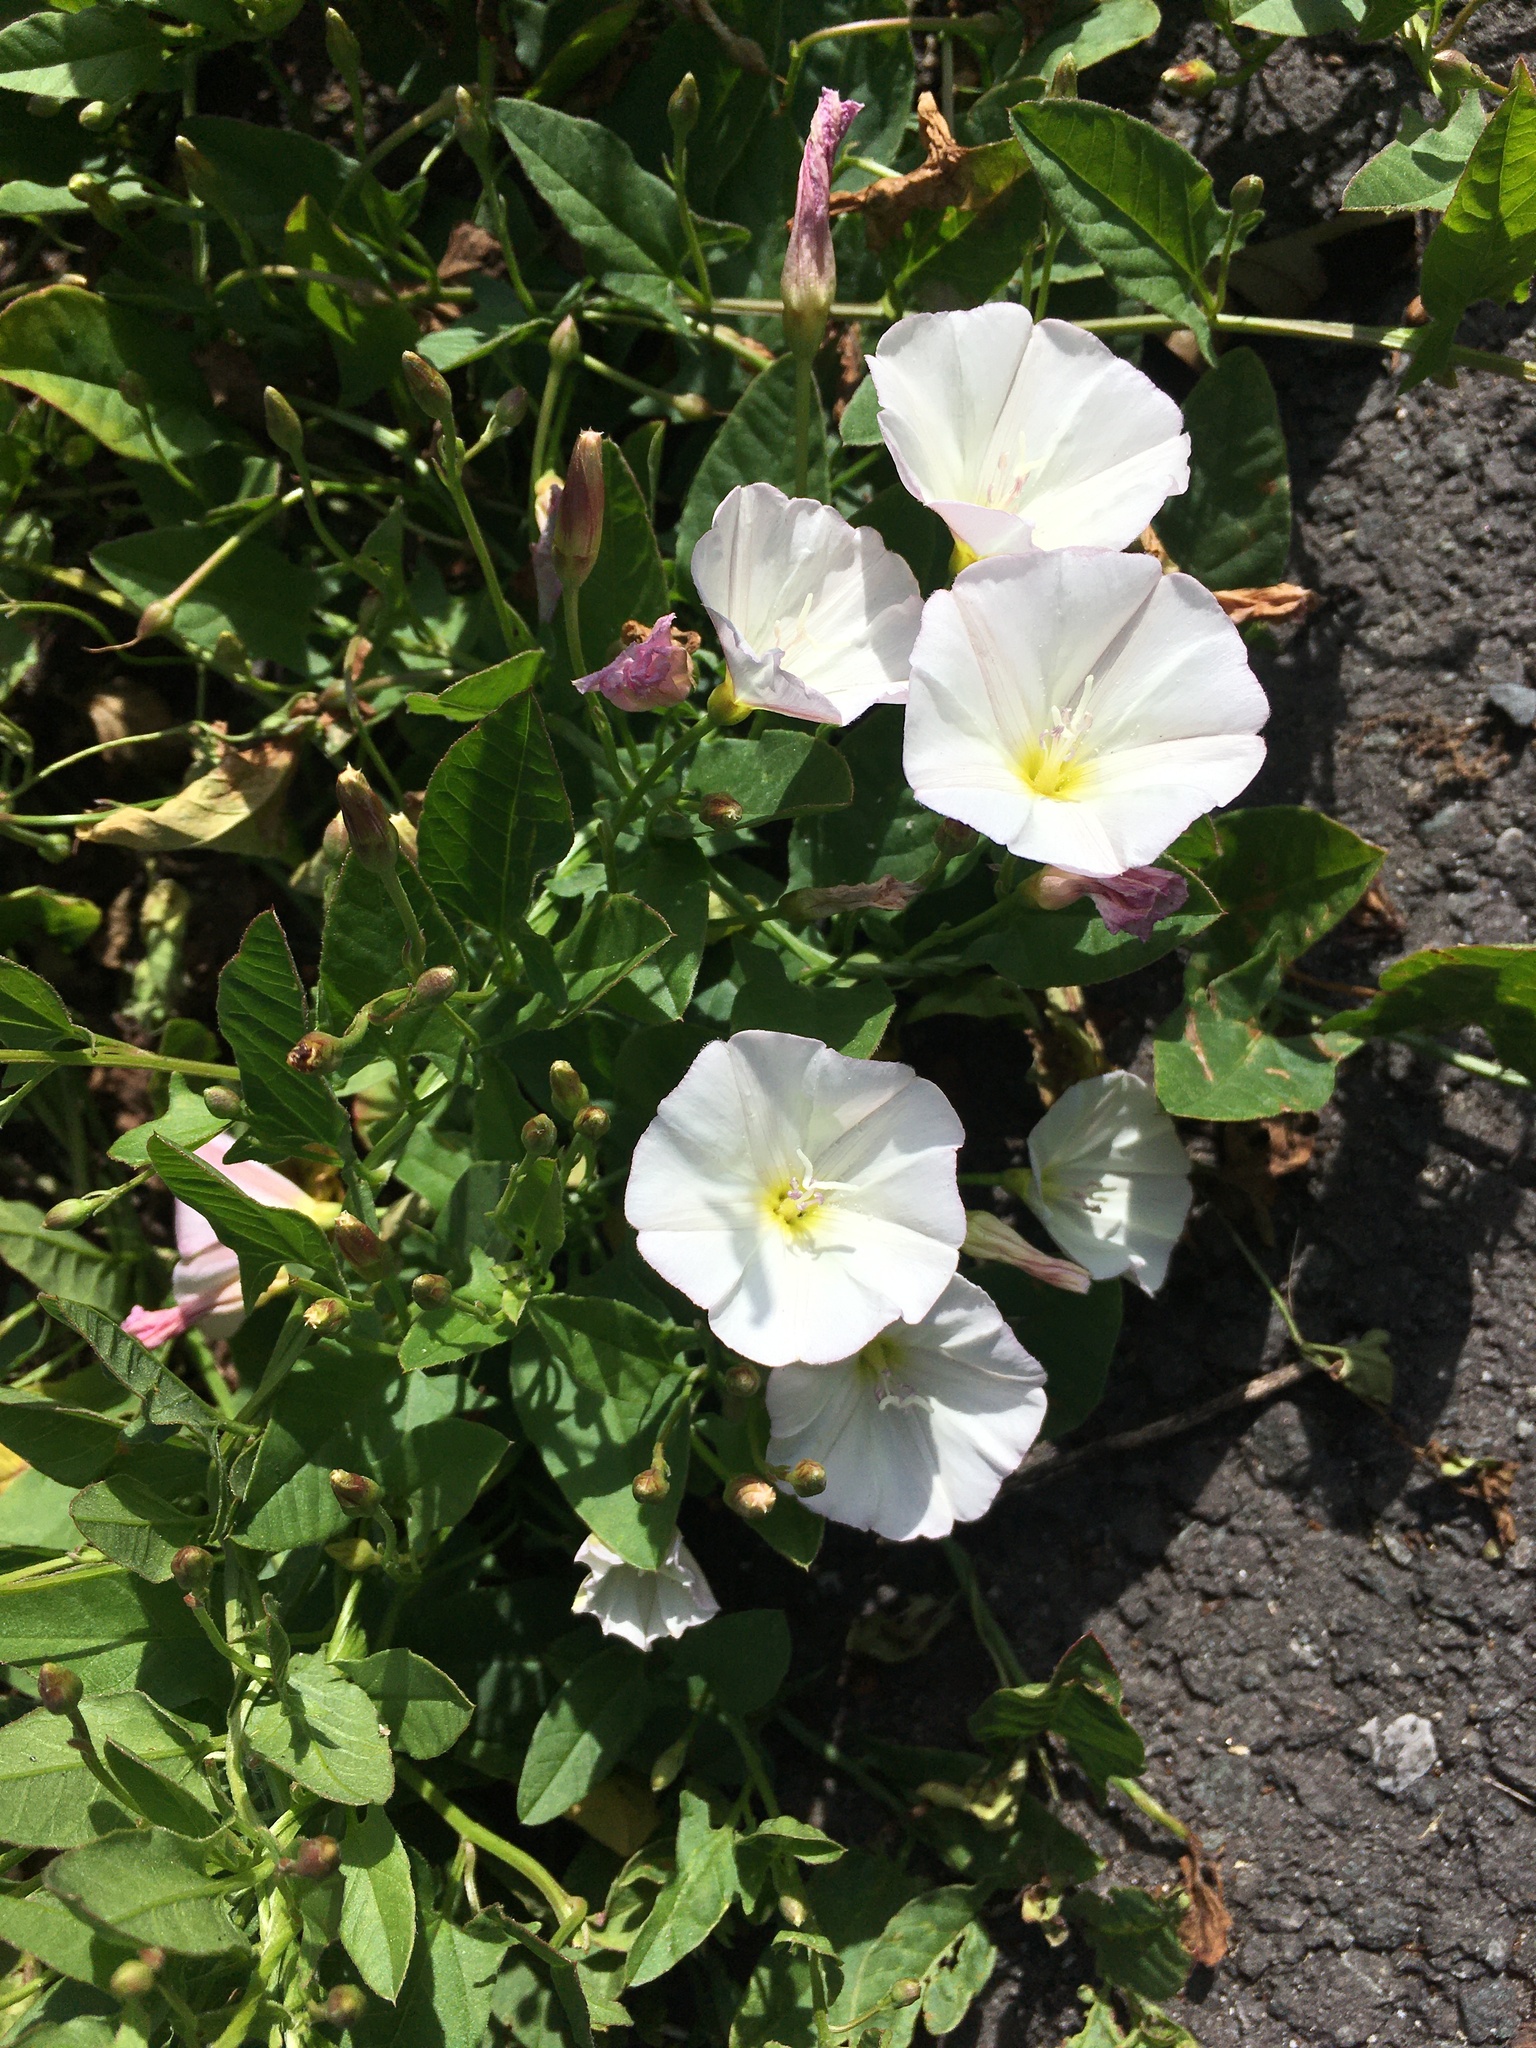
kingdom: Plantae
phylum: Tracheophyta
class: Magnoliopsida
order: Solanales
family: Convolvulaceae
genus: Convolvulus
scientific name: Convolvulus arvensis
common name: Field bindweed
